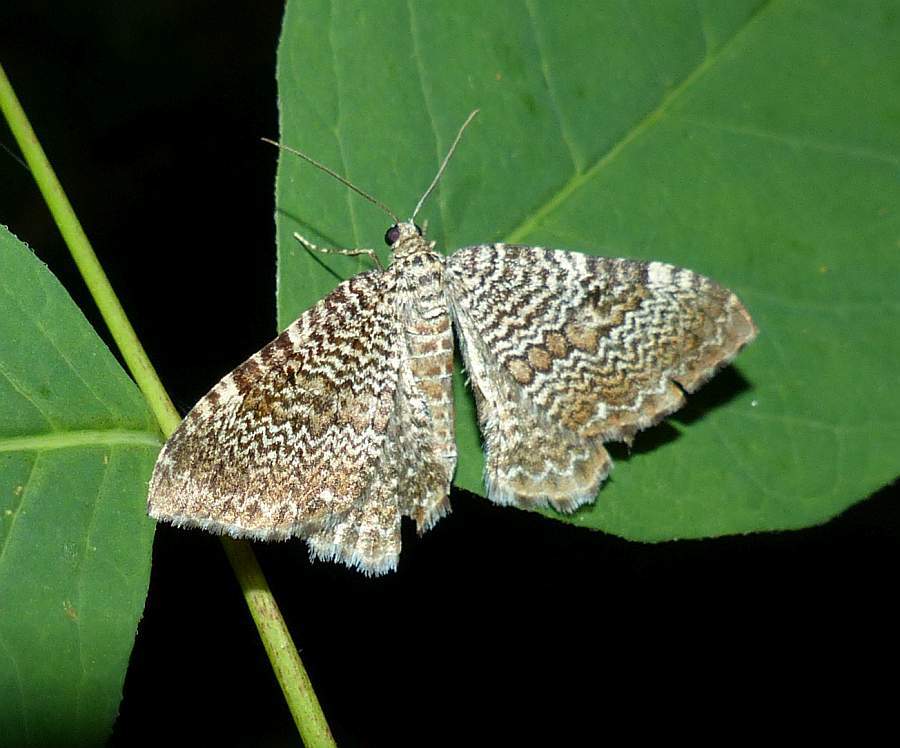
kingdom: Animalia
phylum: Arthropoda
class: Insecta
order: Lepidoptera
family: Geometridae
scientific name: Geometridae
